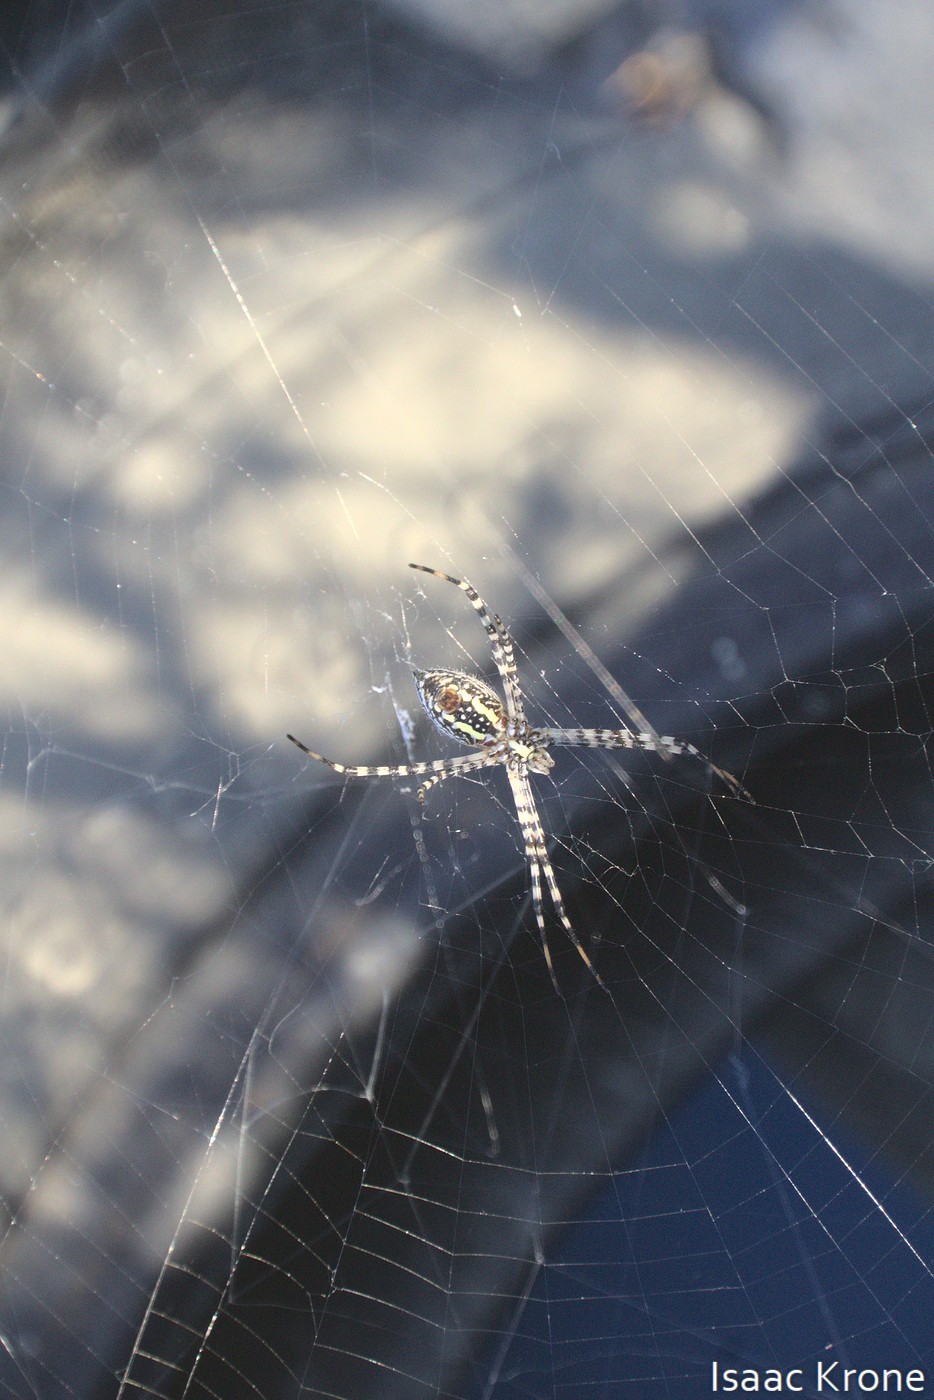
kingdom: Animalia
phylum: Arthropoda
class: Arachnida
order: Araneae
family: Araneidae
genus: Argiope
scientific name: Argiope trifasciata
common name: Banded garden spider
